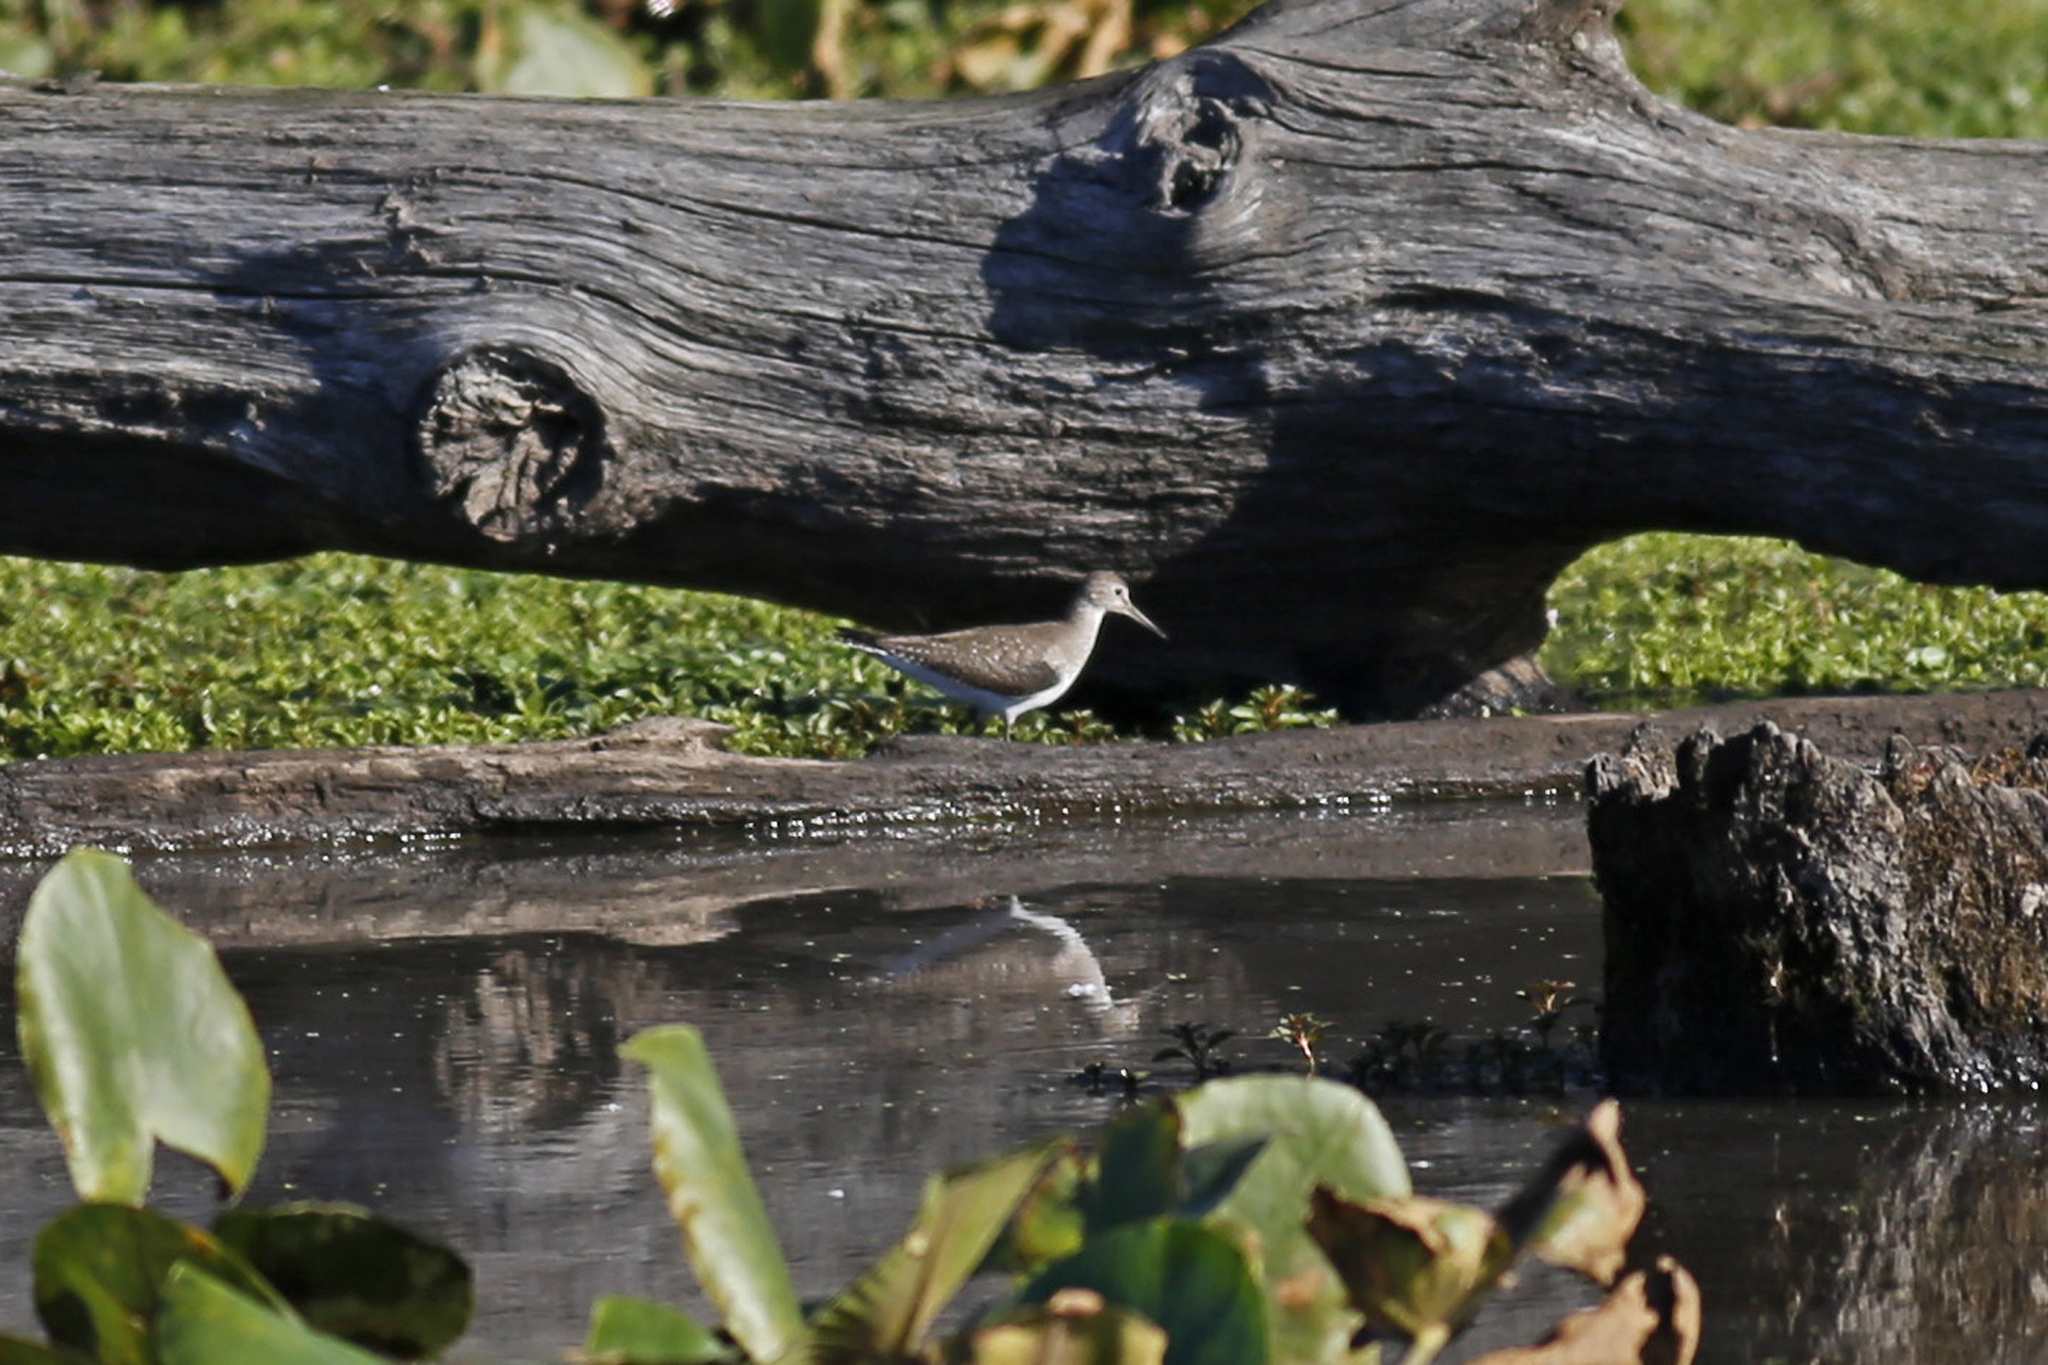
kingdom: Animalia
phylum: Chordata
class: Aves
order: Charadriiformes
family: Scolopacidae
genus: Tringa
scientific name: Tringa solitaria
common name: Solitary sandpiper
